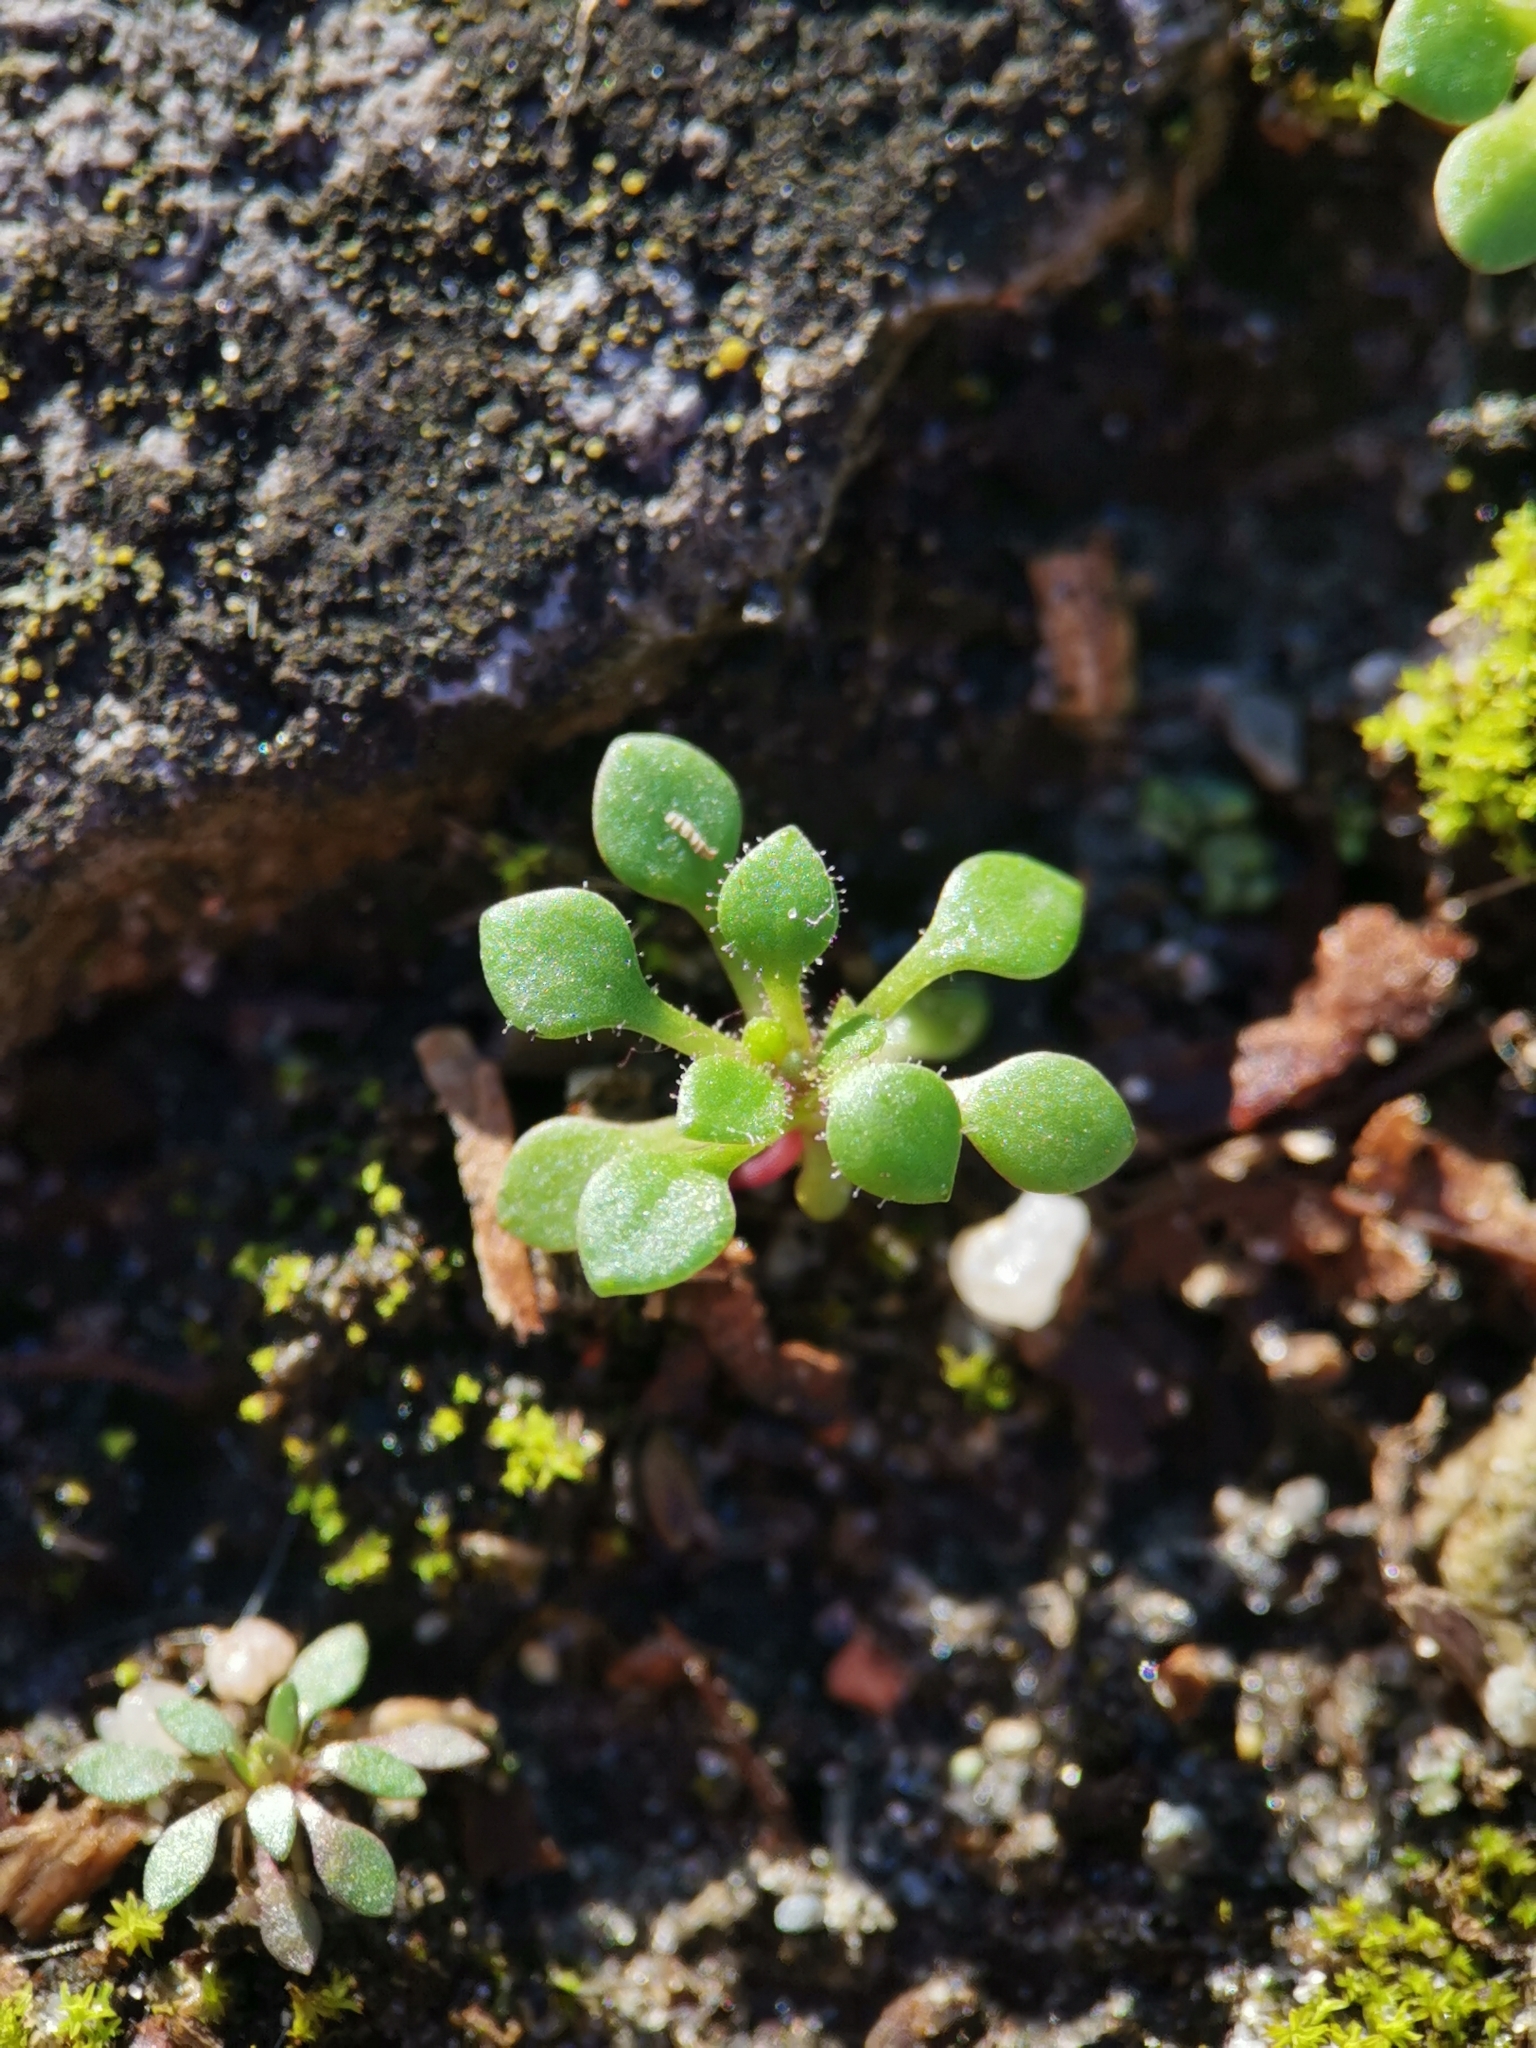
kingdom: Plantae
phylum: Tracheophyta
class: Magnoliopsida
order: Saxifragales
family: Saxifragaceae
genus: Saxifraga
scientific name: Saxifraga tridactylites
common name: Rue-leaved saxifrage
